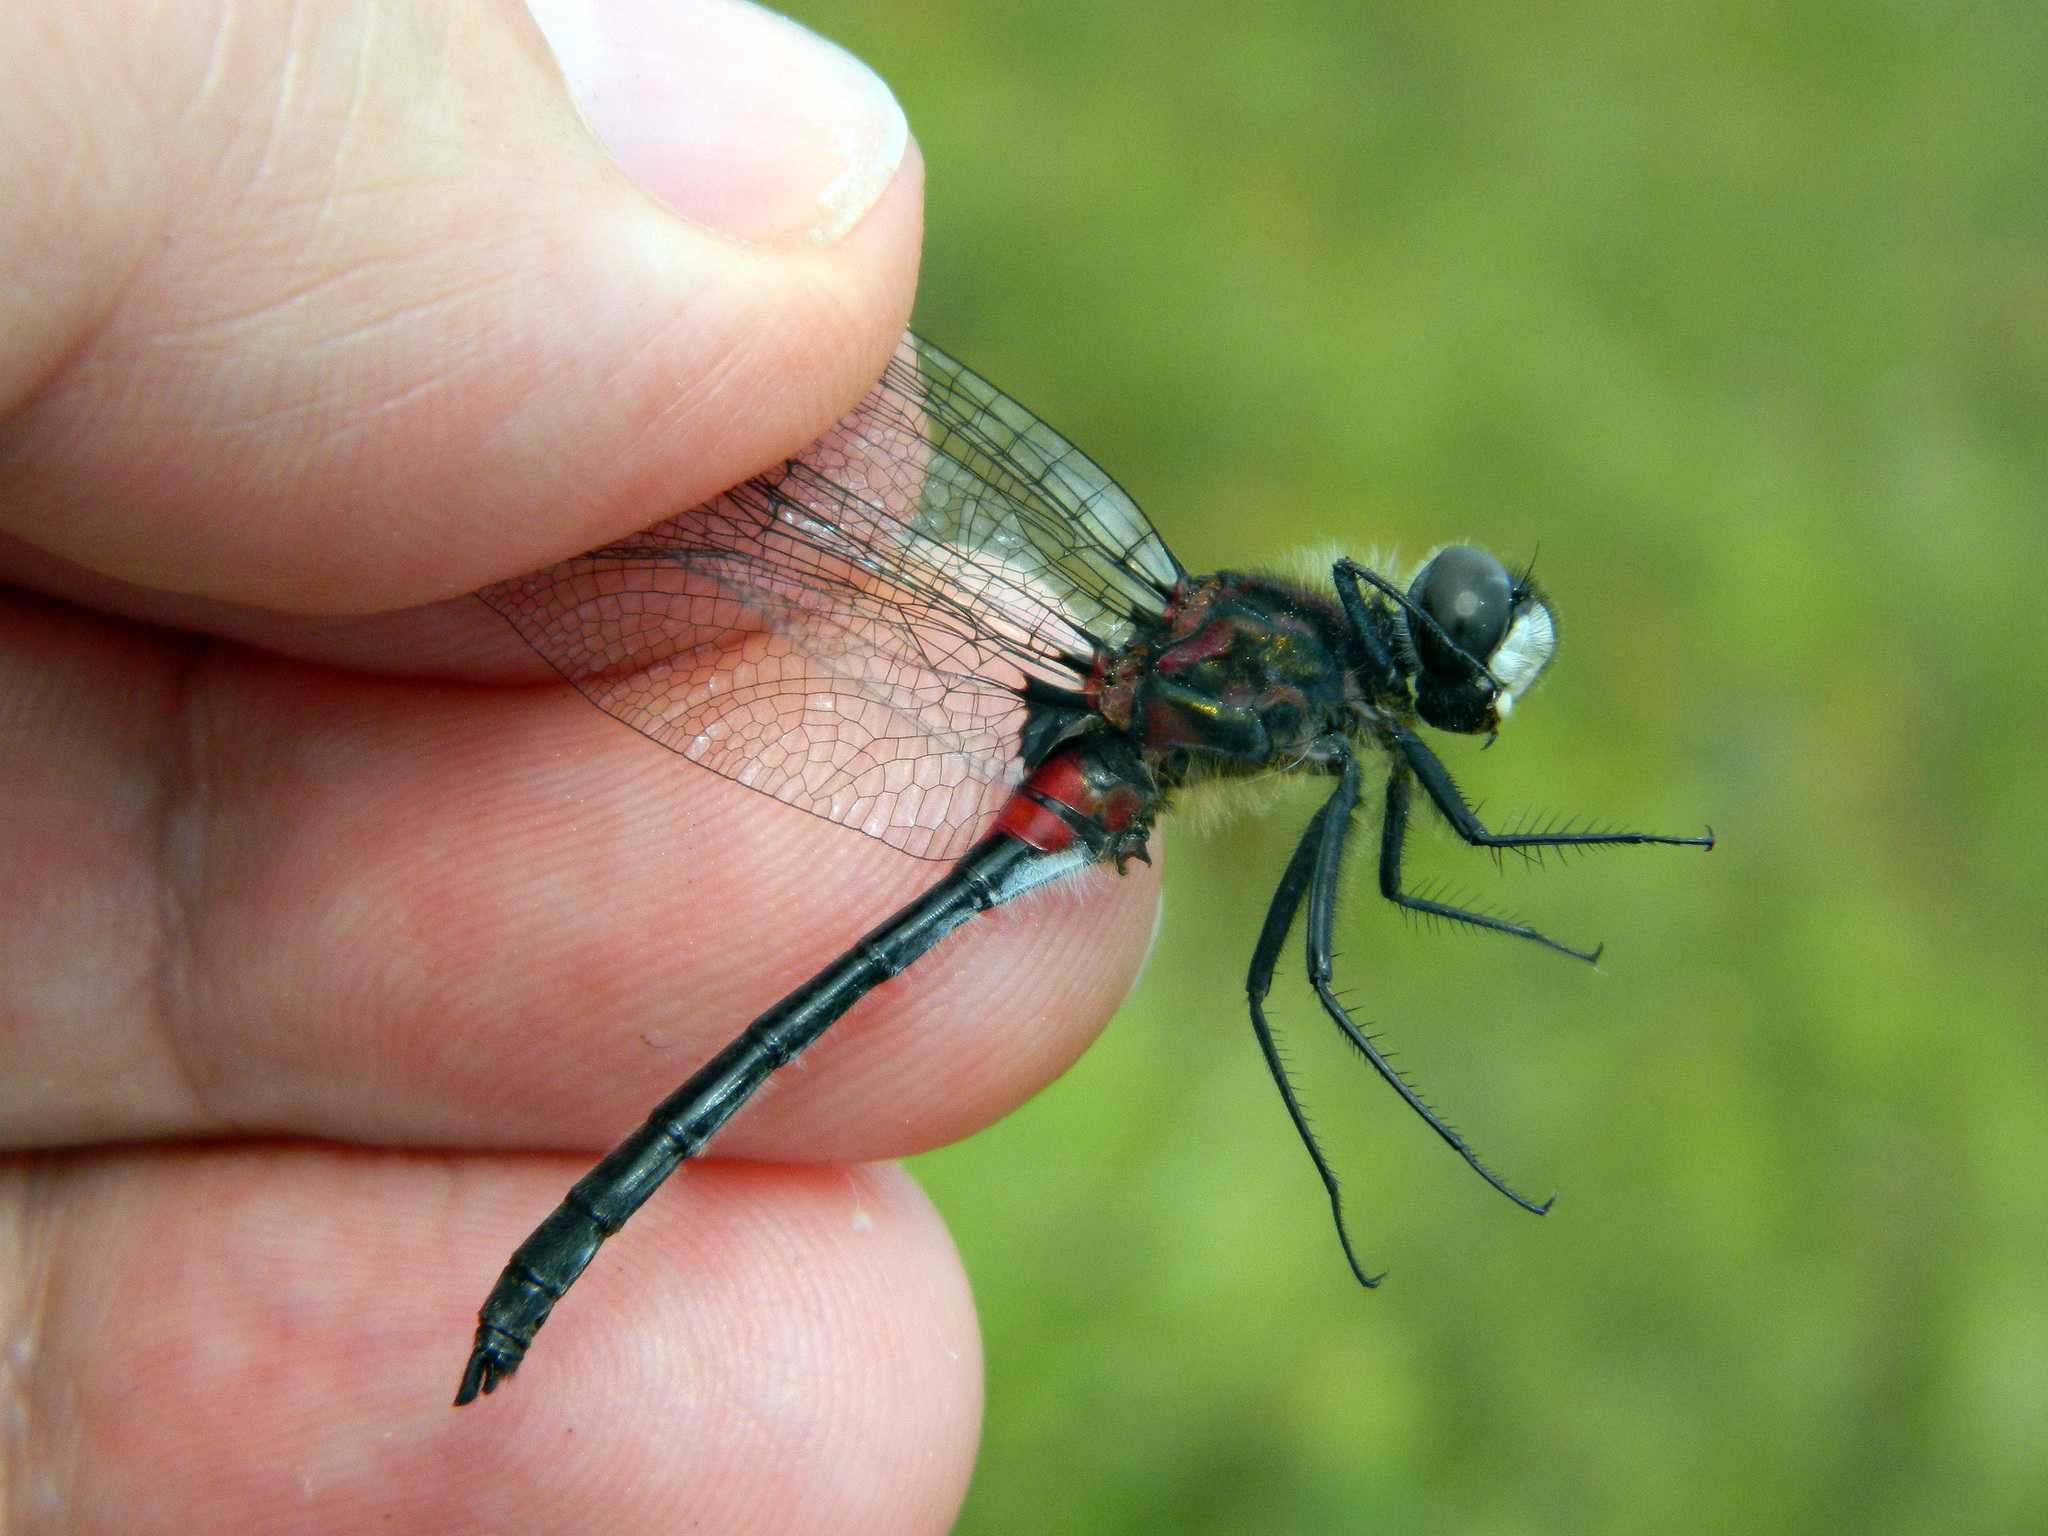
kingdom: Animalia
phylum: Arthropoda
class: Insecta
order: Odonata
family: Libellulidae
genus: Leucorrhinia
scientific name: Leucorrhinia glacialis
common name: Crimson-ringed whiteface
